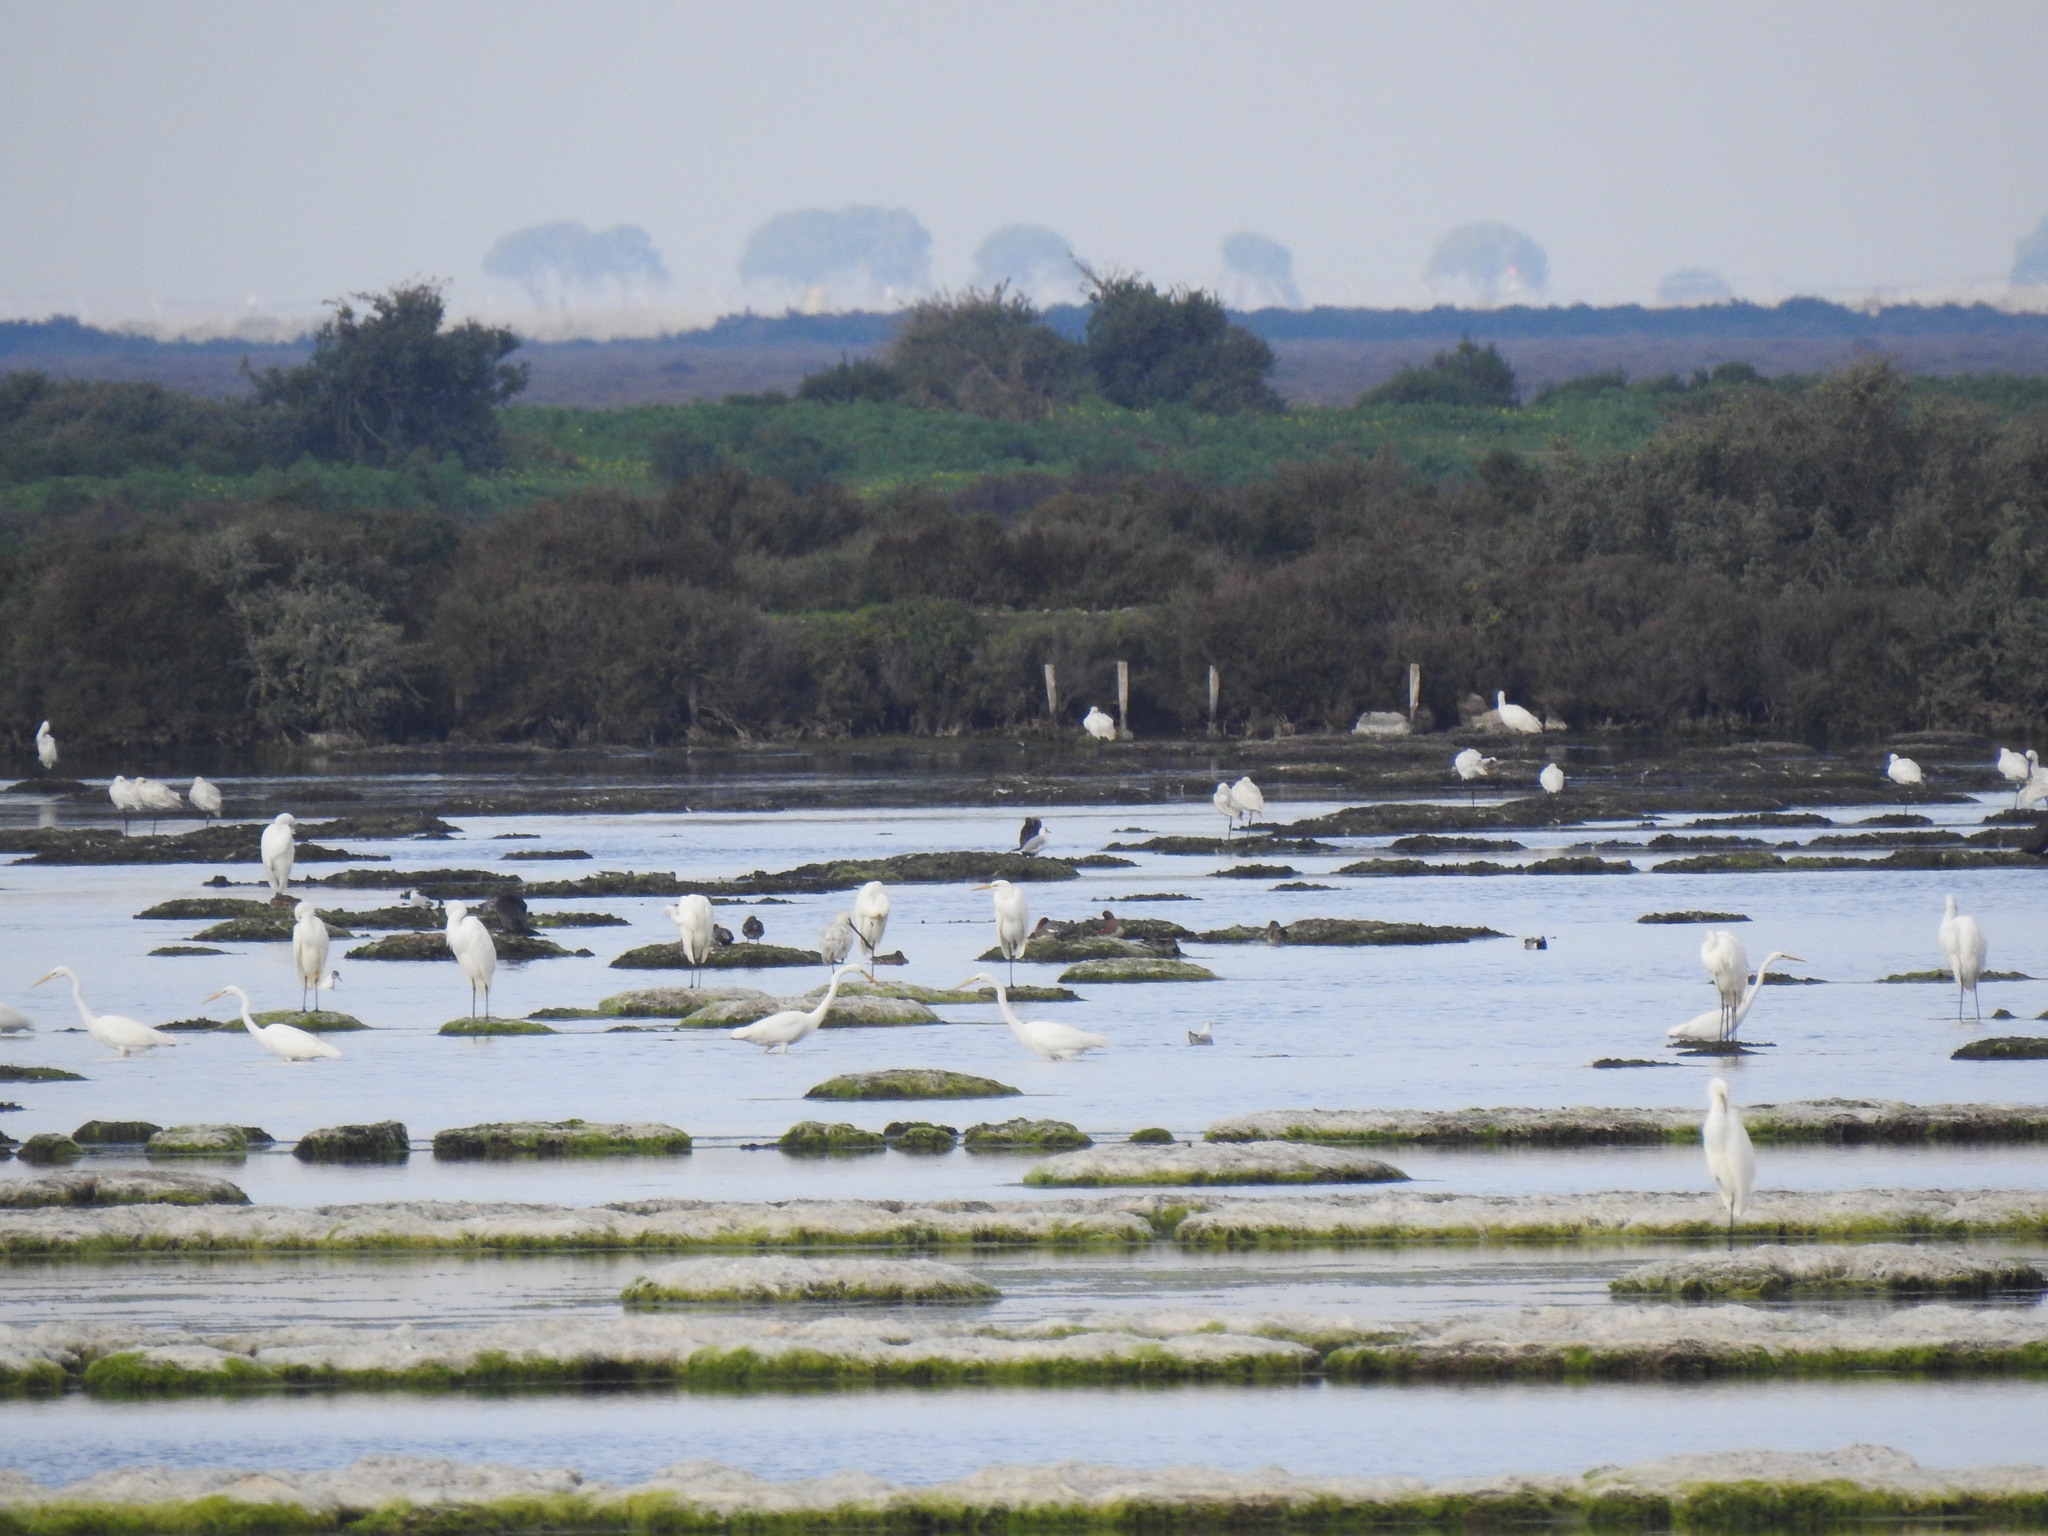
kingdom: Animalia
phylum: Chordata
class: Aves
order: Pelecaniformes
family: Ardeidae
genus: Ardea
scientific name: Ardea alba
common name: Great egret
